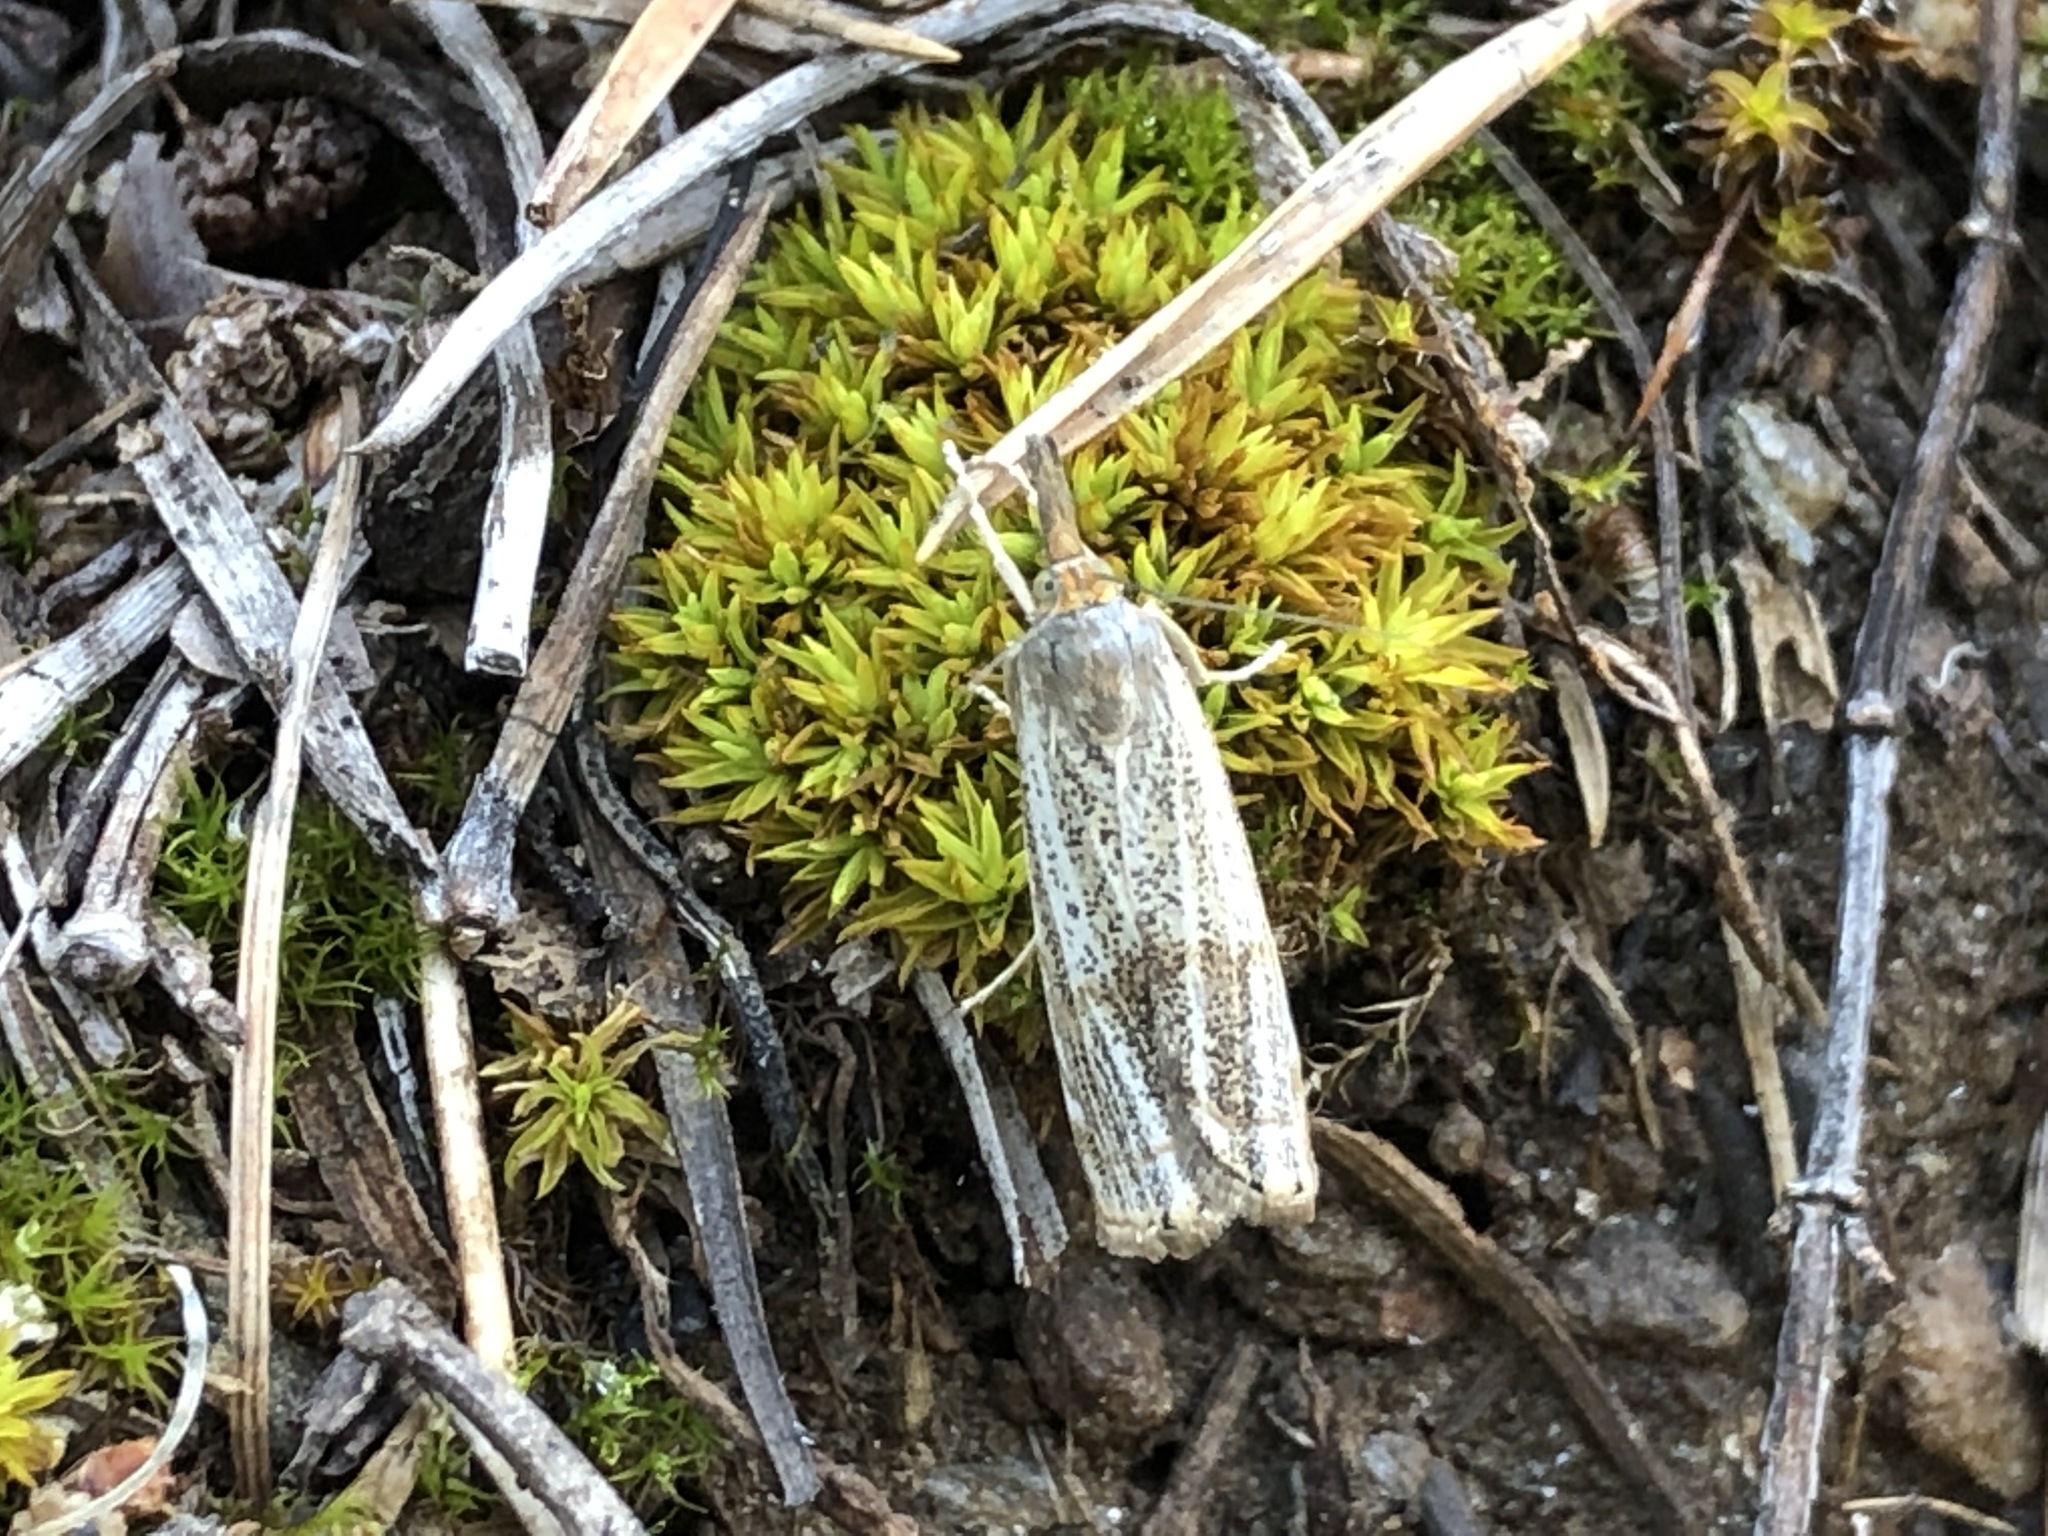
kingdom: Animalia
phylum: Arthropoda
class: Insecta
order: Lepidoptera
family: Crambidae
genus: Thisanotia
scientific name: Thisanotia chrysonuchella
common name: Powdered grass-veneer
